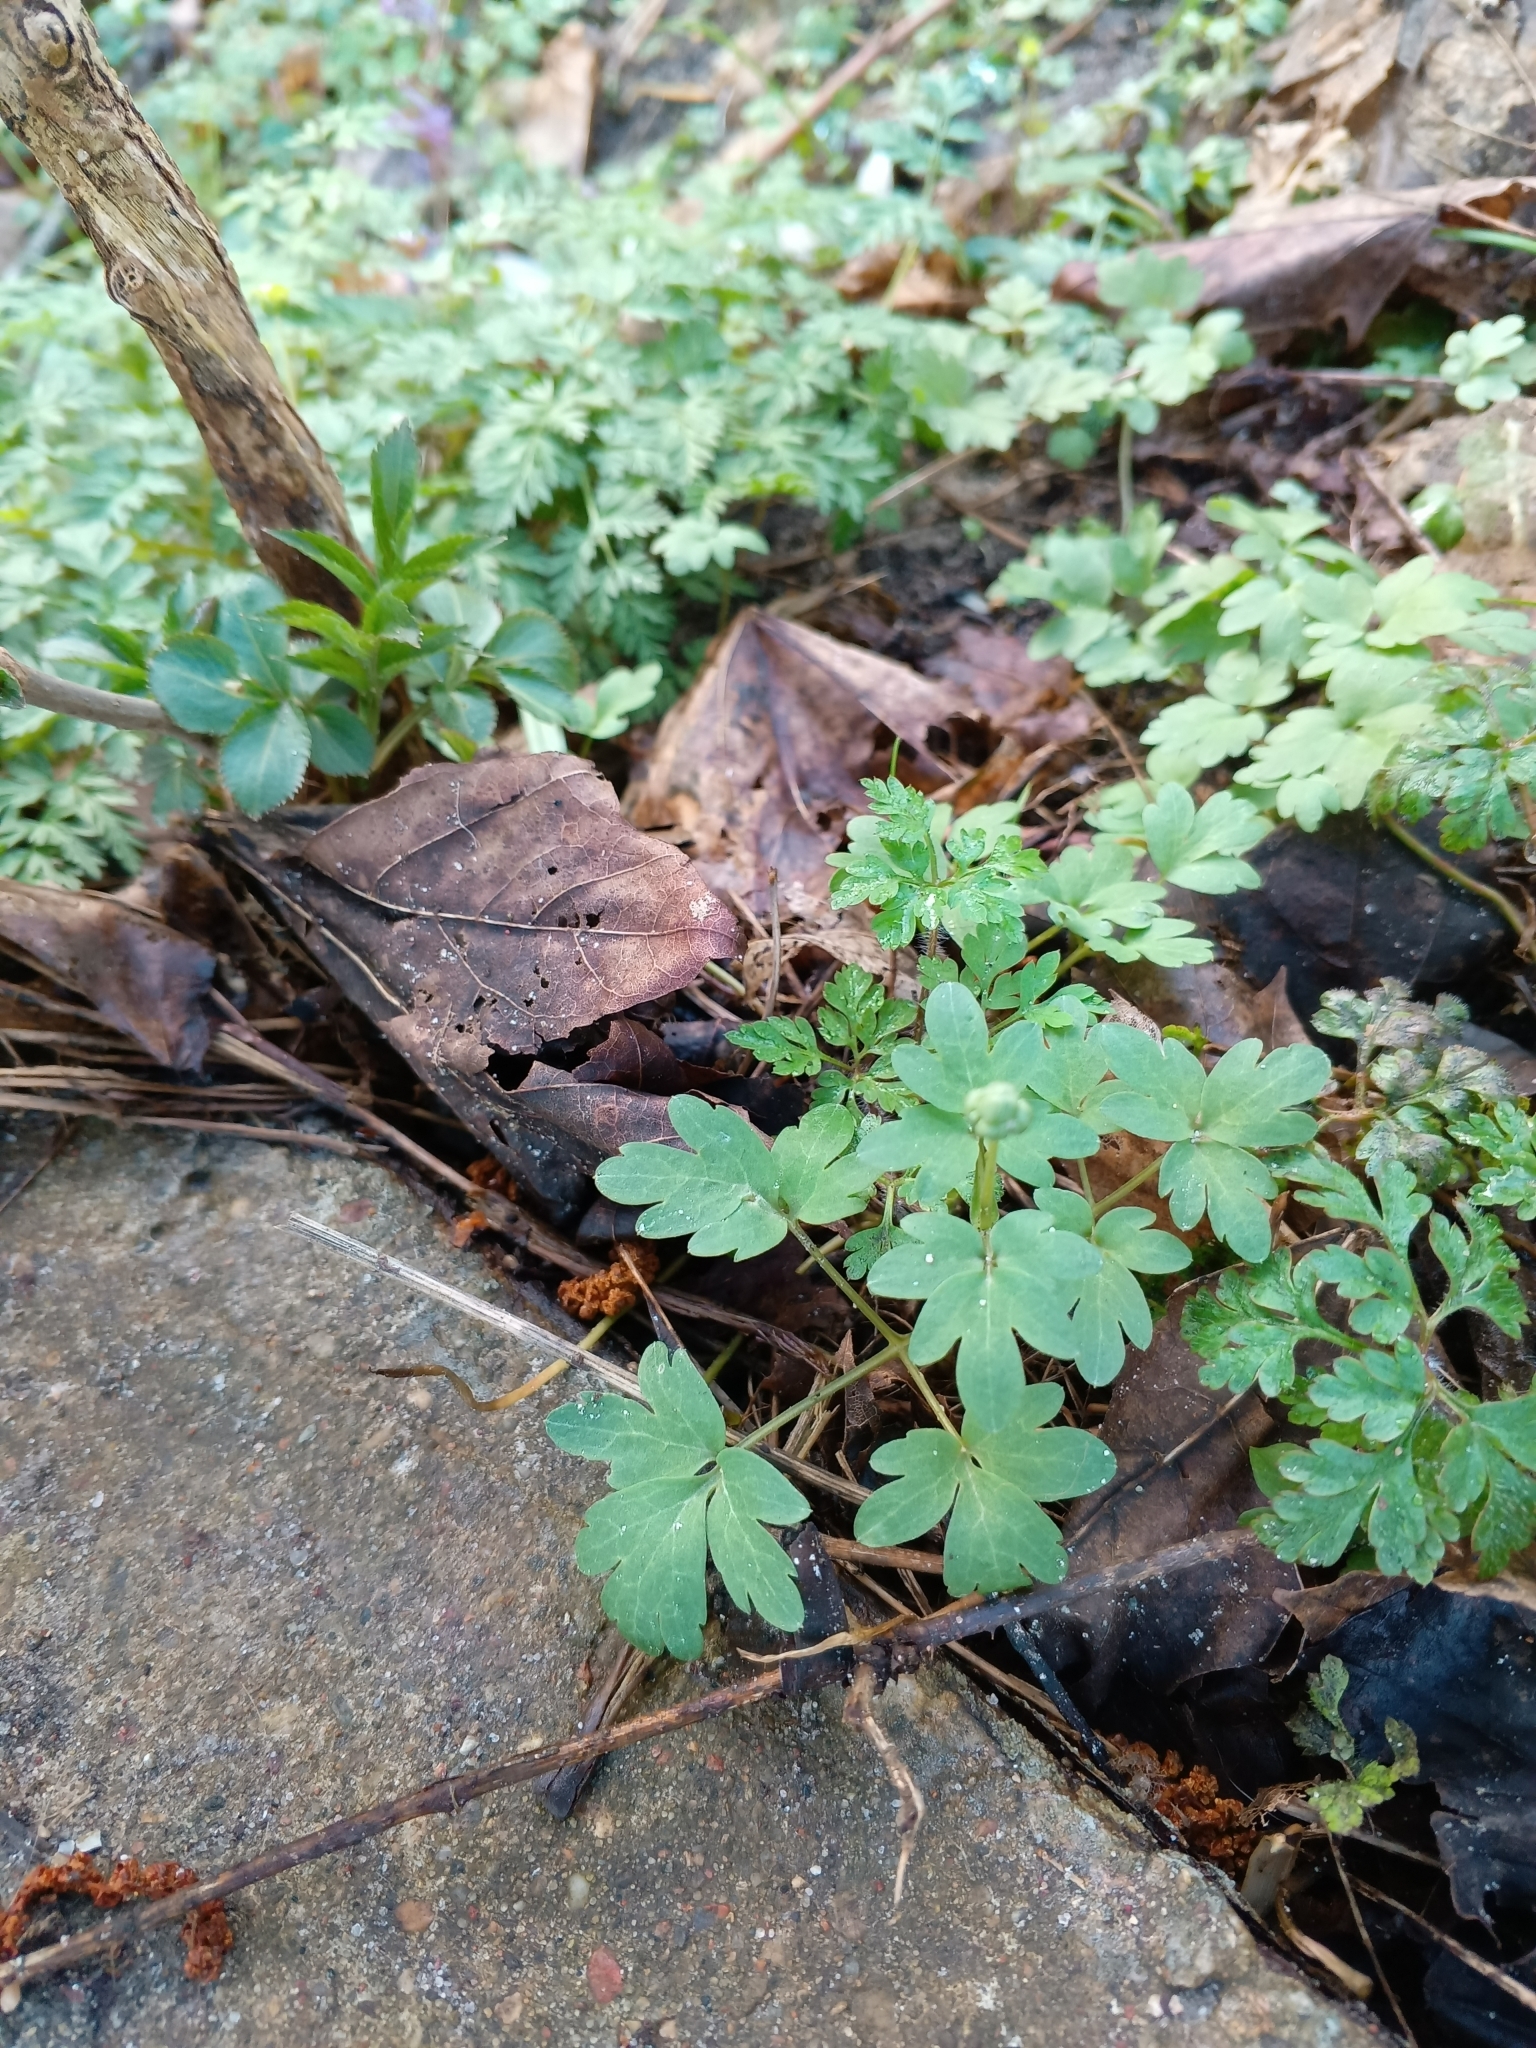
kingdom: Plantae
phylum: Tracheophyta
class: Magnoliopsida
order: Dipsacales
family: Viburnaceae
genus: Adoxa
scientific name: Adoxa moschatellina
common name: Moschatel
